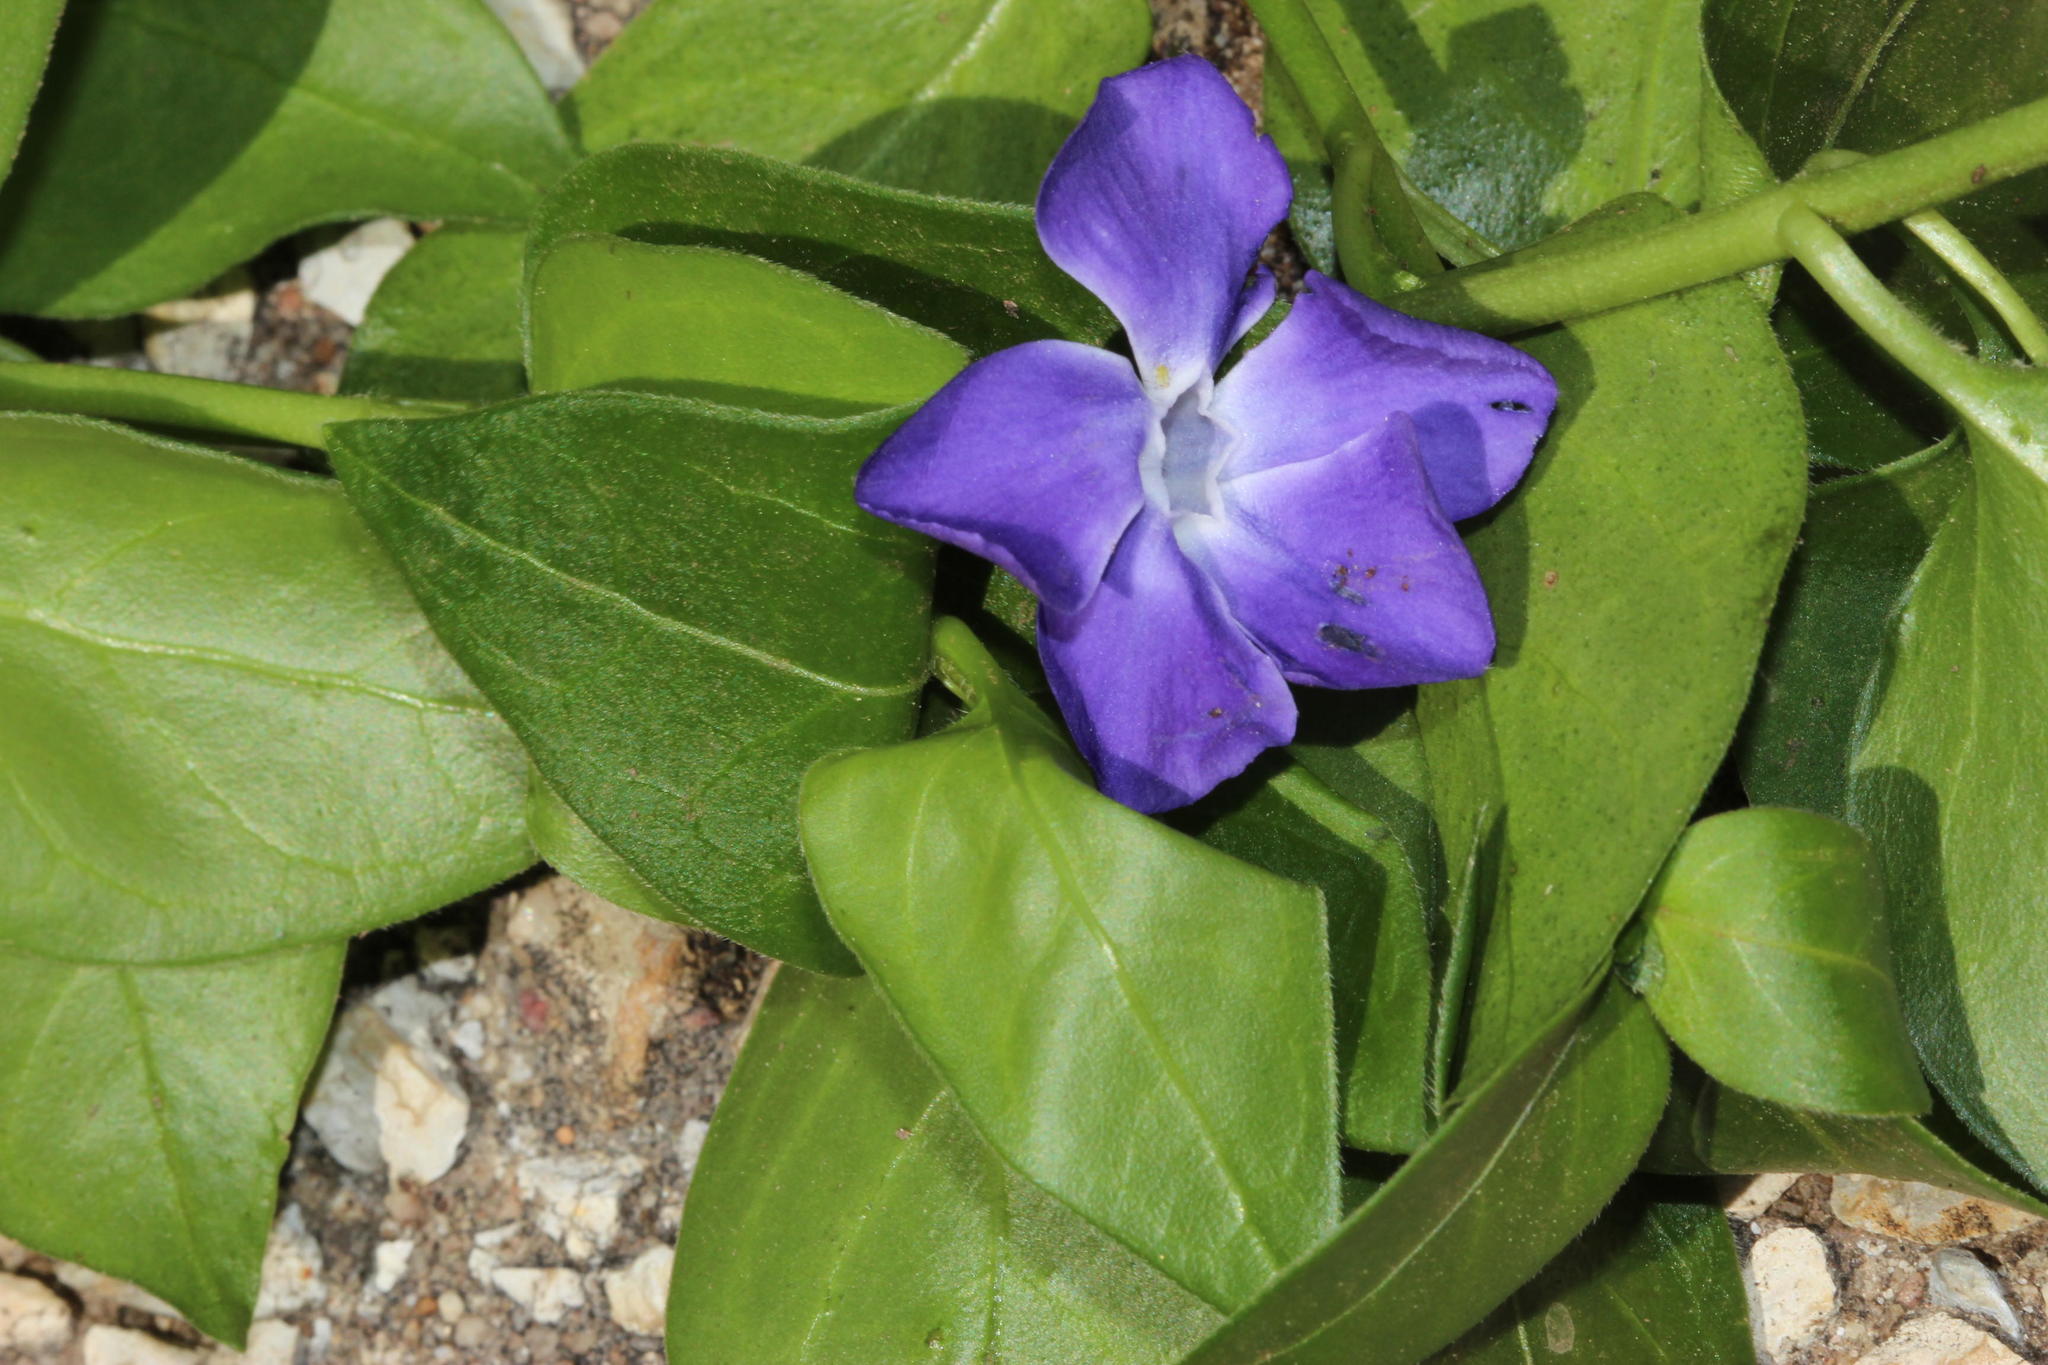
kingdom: Plantae
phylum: Tracheophyta
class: Magnoliopsida
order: Gentianales
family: Apocynaceae
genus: Vinca
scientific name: Vinca major
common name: Greater periwinkle
